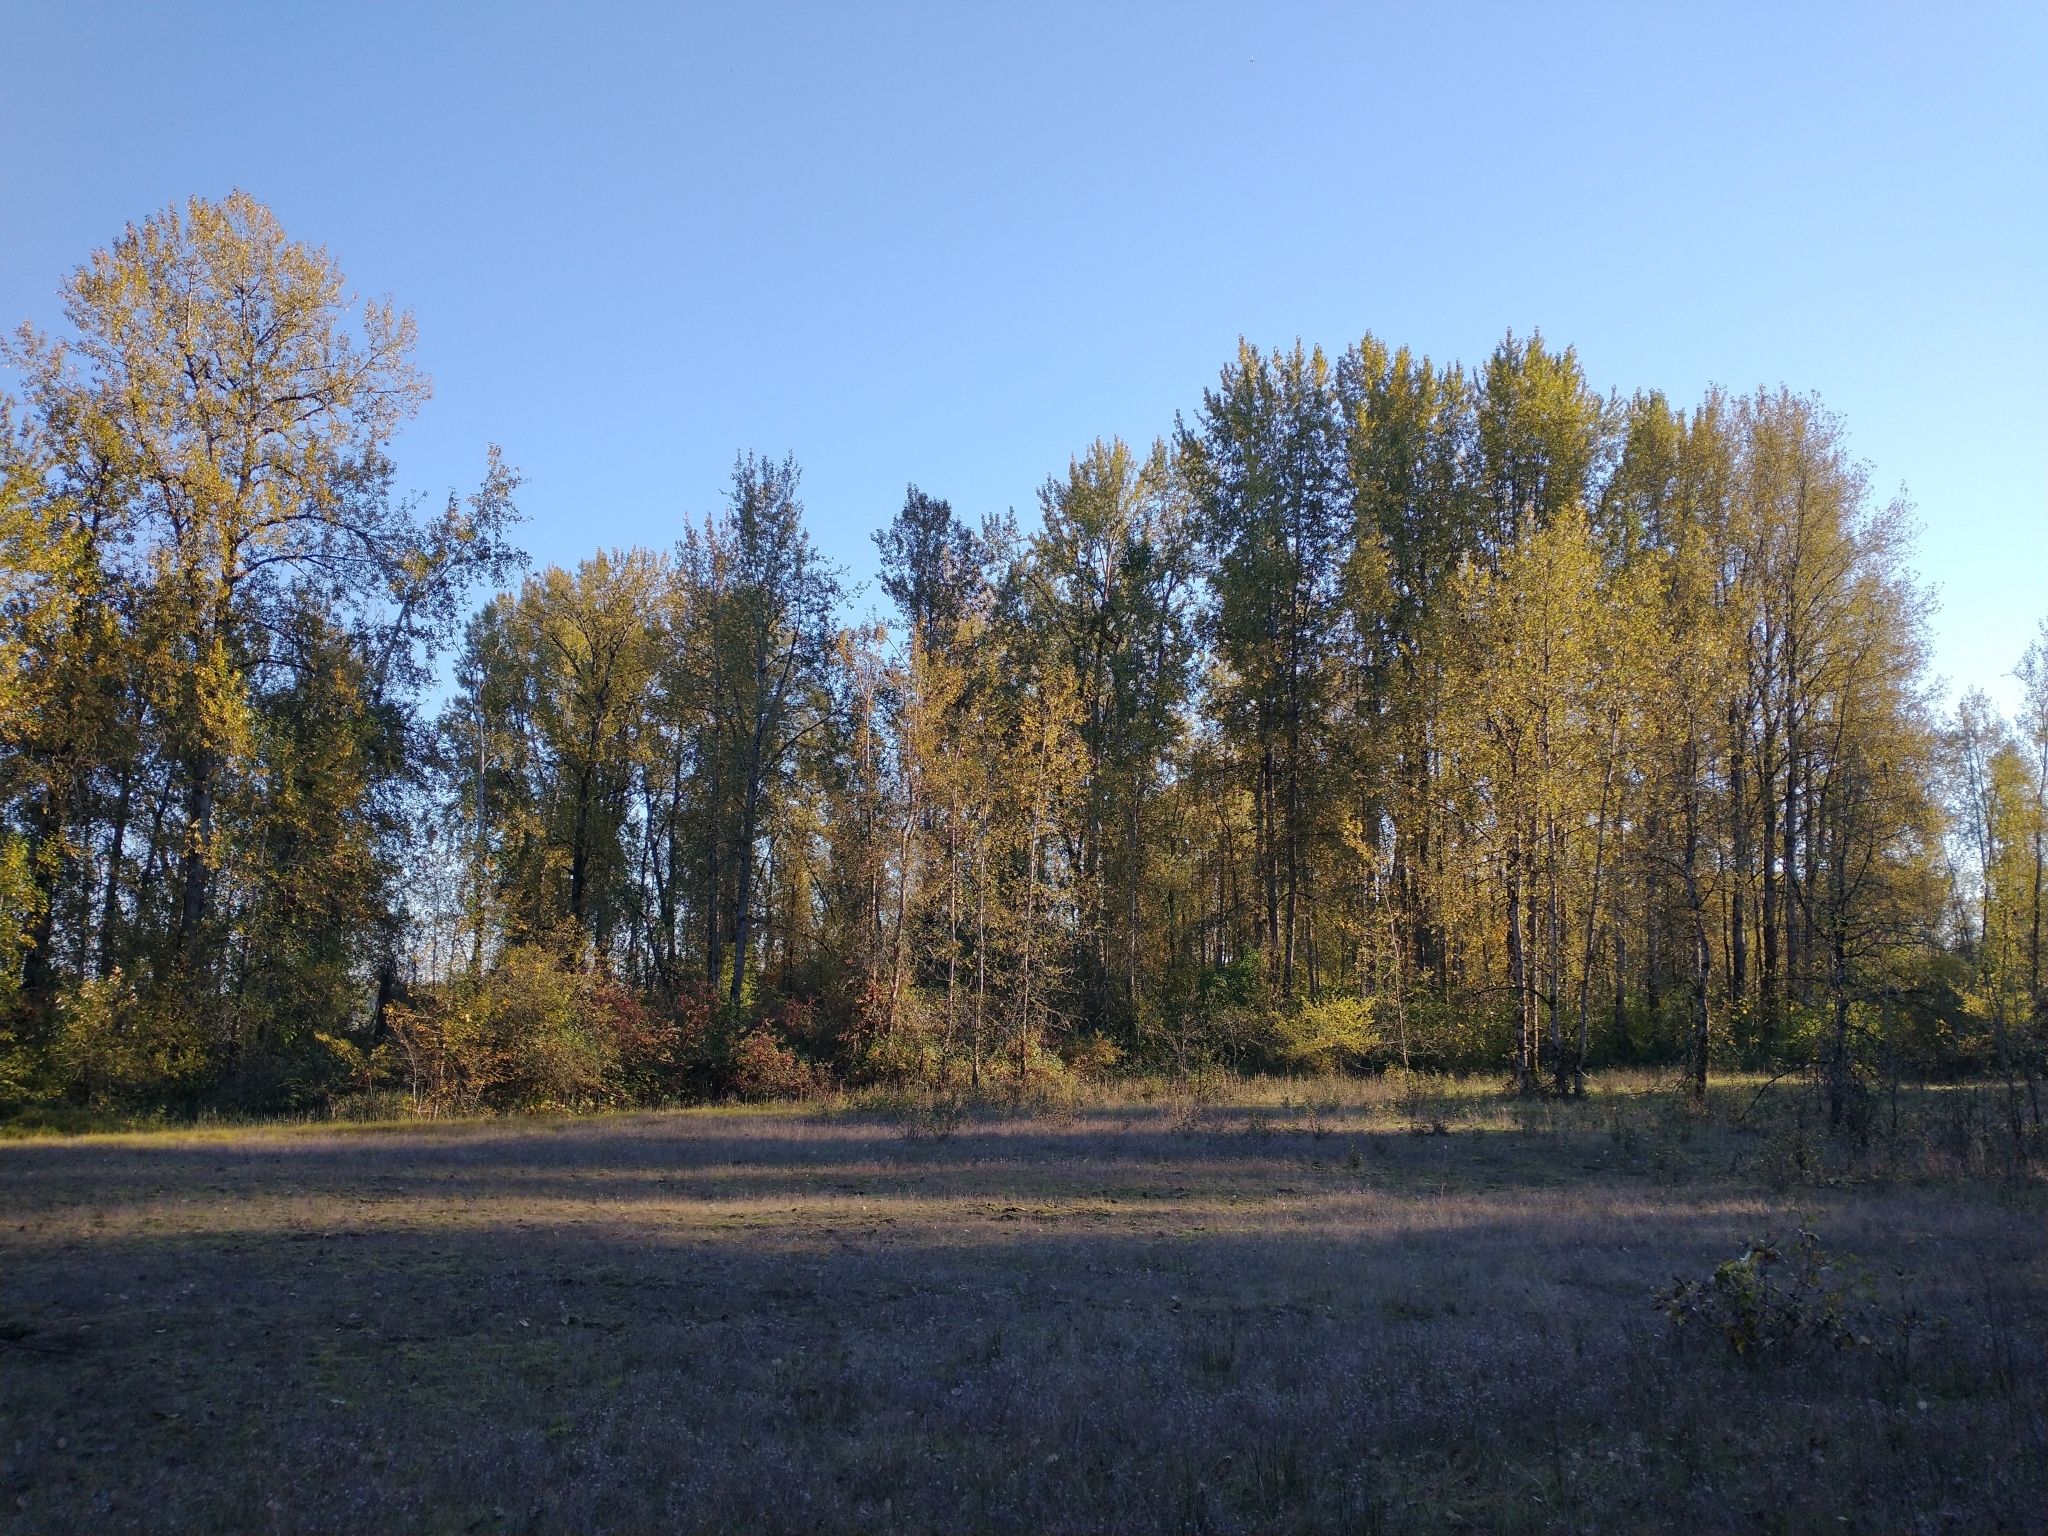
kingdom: Plantae
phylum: Tracheophyta
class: Magnoliopsida
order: Malpighiales
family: Salicaceae
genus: Populus
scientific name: Populus trichocarpa
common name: Black cottonwood
